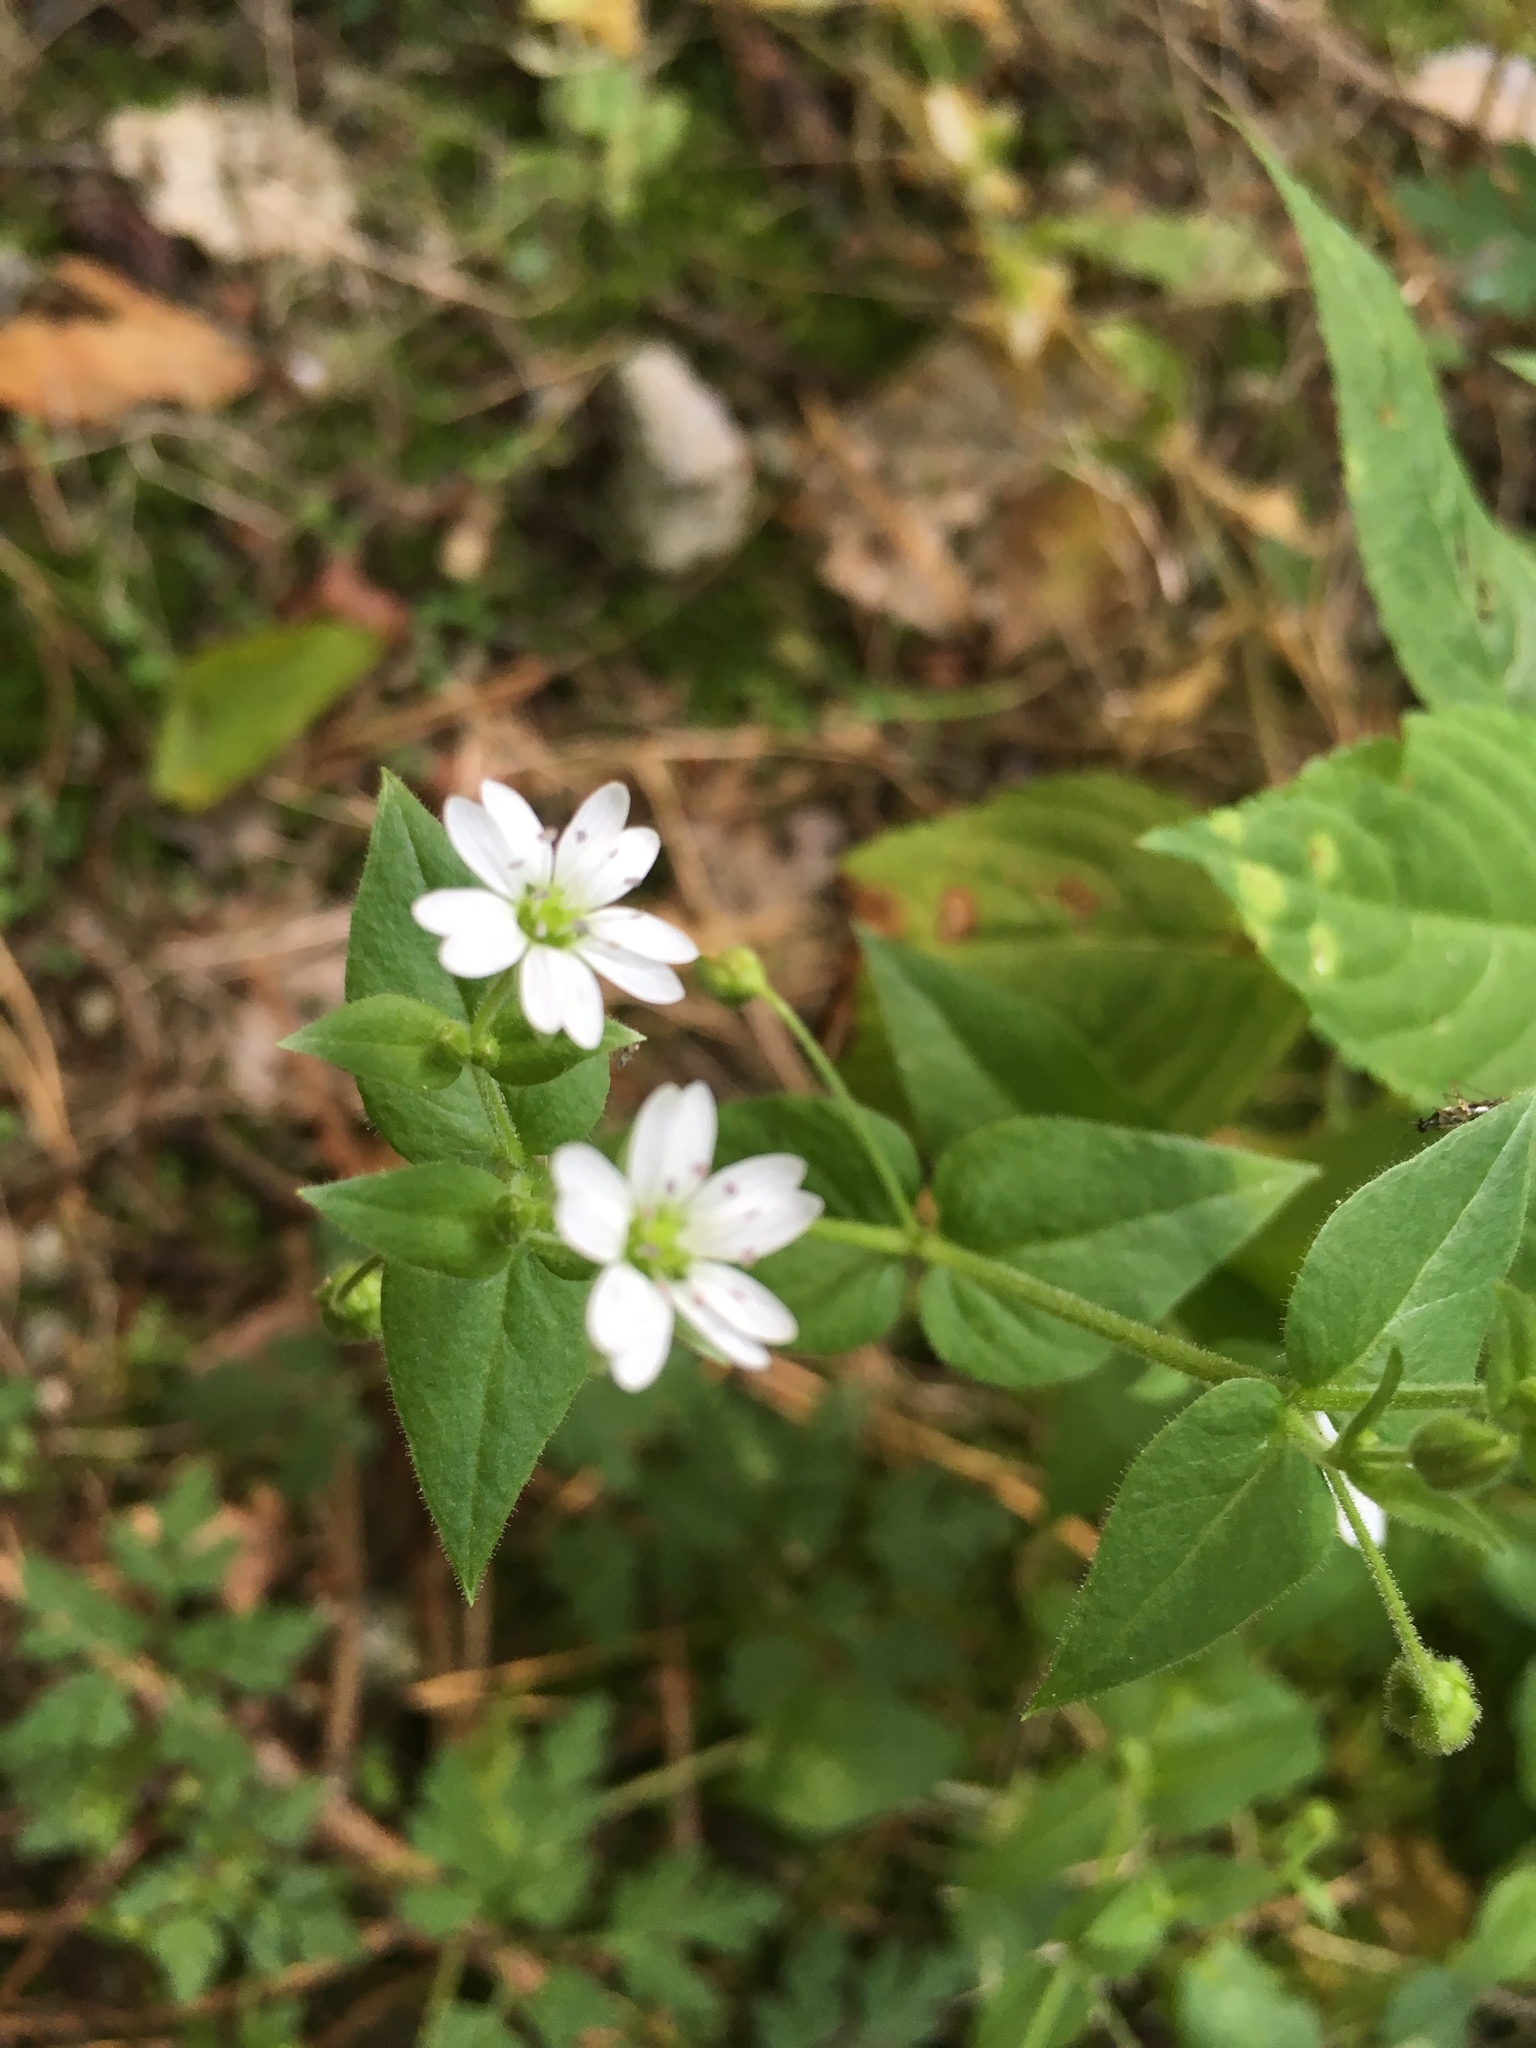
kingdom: Plantae
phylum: Tracheophyta
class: Magnoliopsida
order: Caryophyllales
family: Caryophyllaceae
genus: Stellaria
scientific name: Stellaria aquatica
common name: Water chickweed
